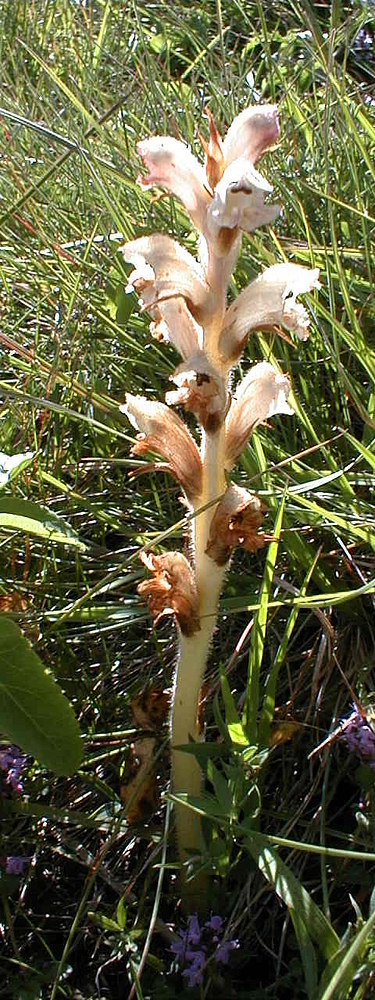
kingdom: Plantae
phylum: Tracheophyta
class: Magnoliopsida
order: Lamiales
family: Orobanchaceae
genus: Orobanche
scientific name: Orobanche caryophyllacea
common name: Bedstraw broomrape
